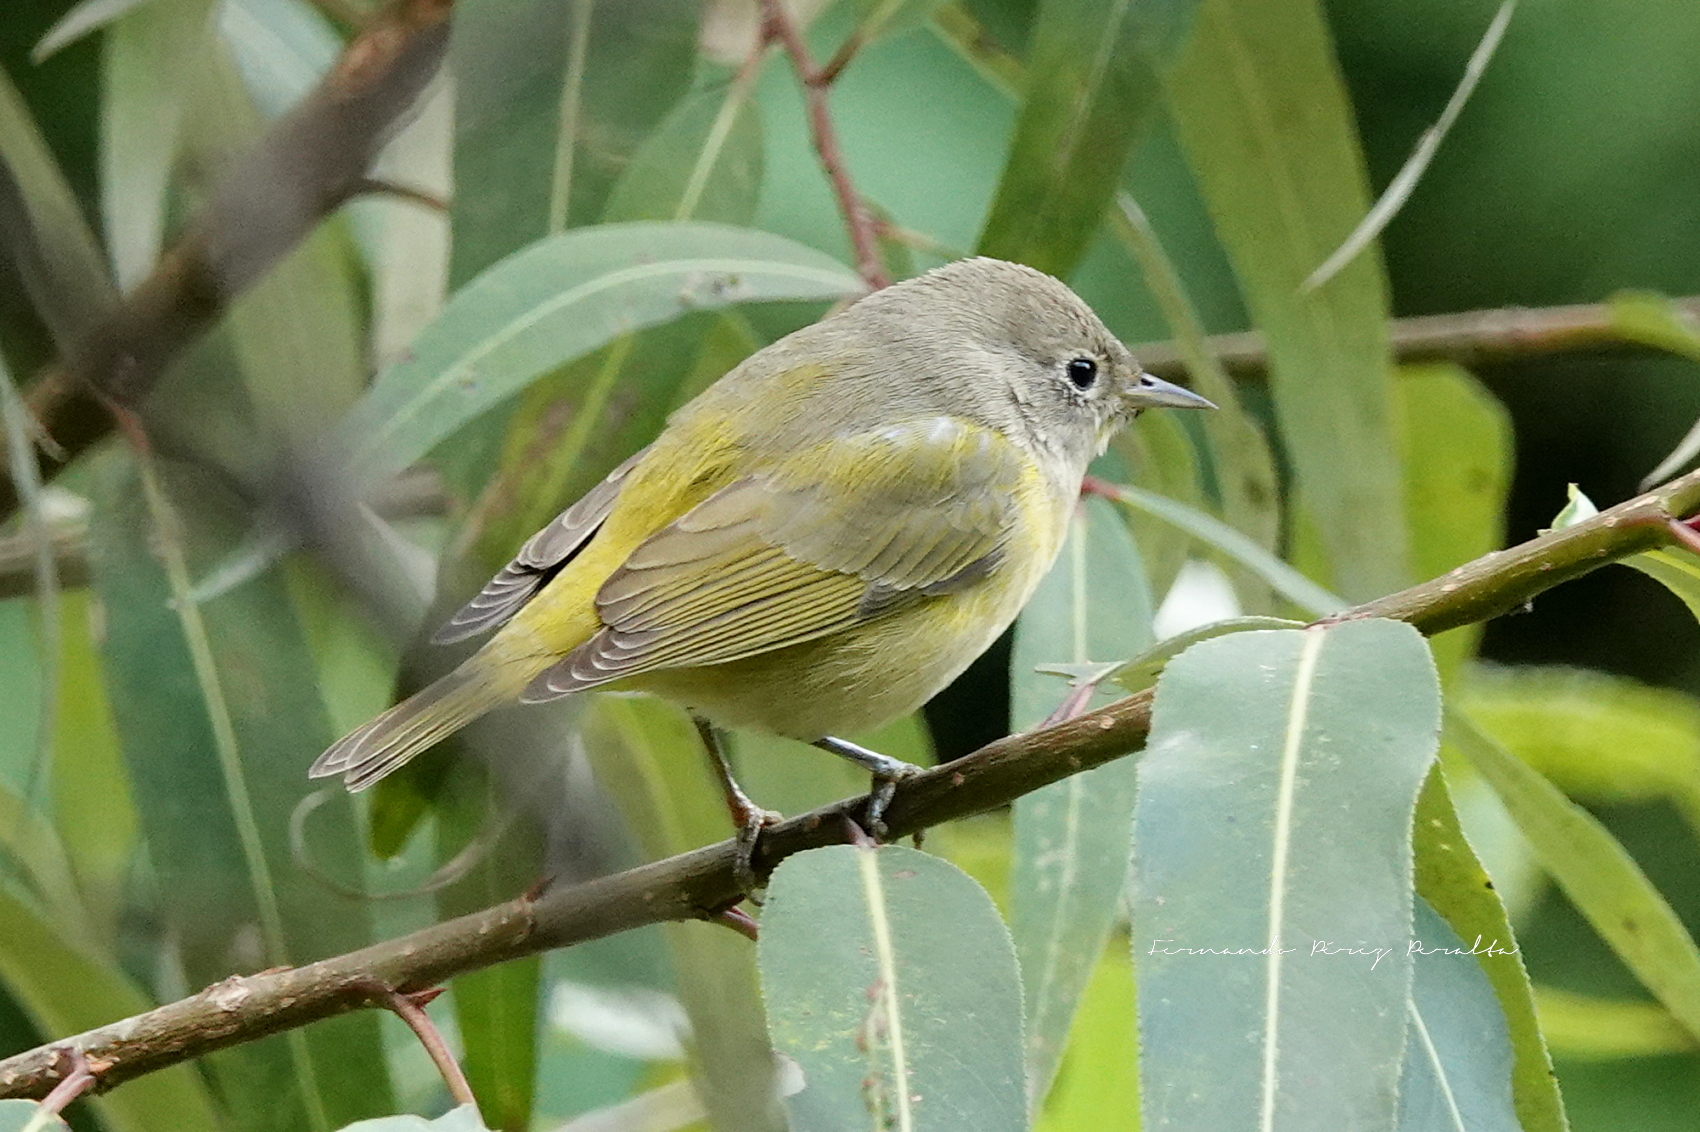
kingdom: Animalia
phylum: Chordata
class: Aves
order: Passeriformes
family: Parulidae
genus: Leiothlypis
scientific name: Leiothlypis celata
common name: Orange-crowned warbler
